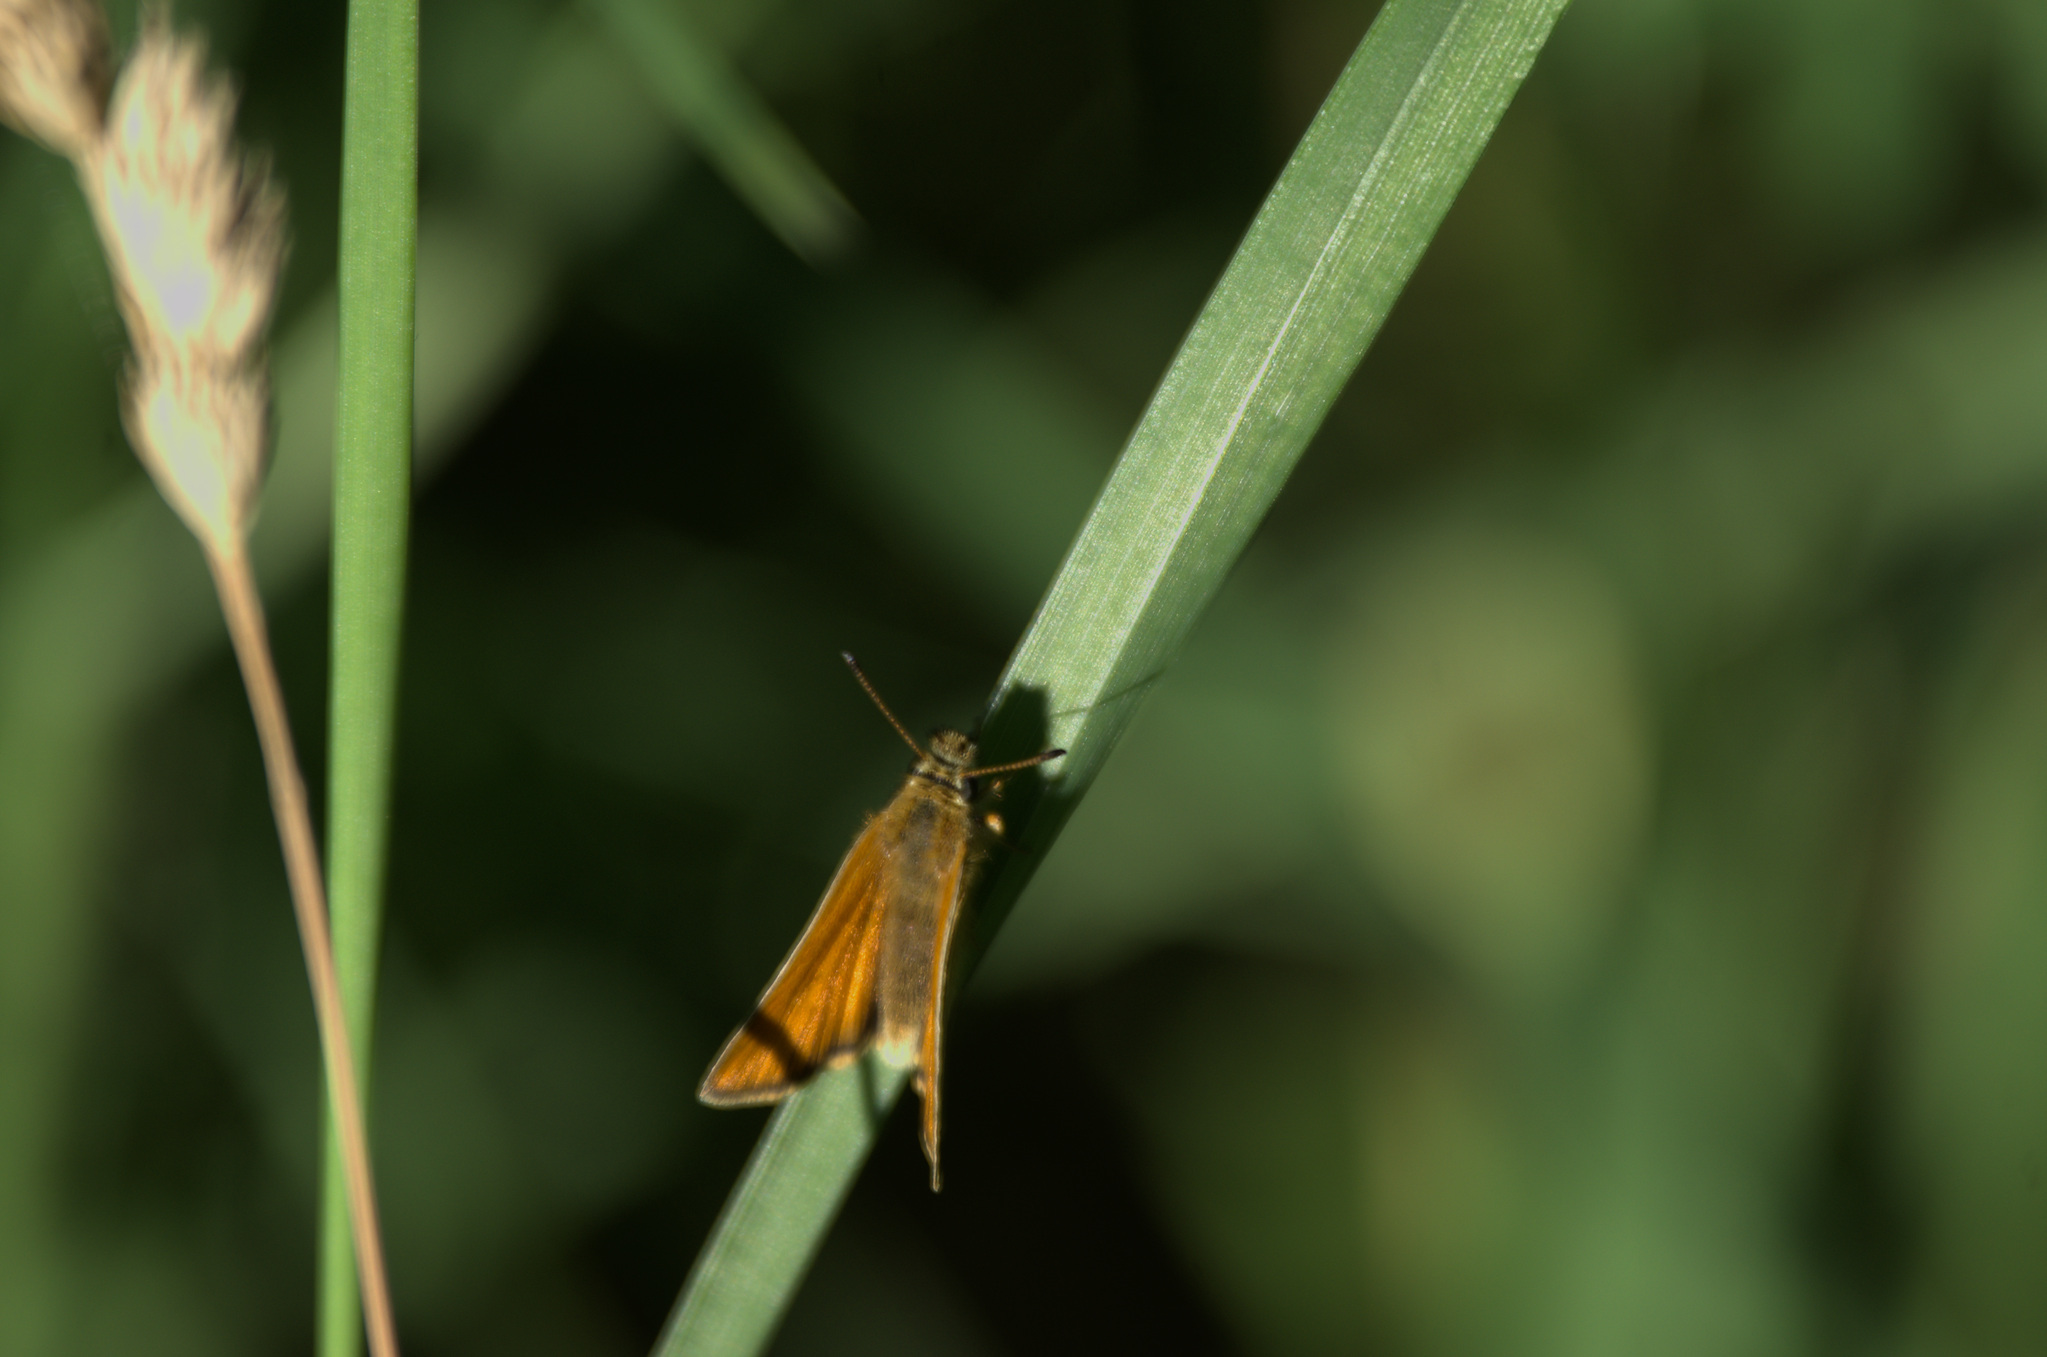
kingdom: Animalia
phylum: Arthropoda
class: Insecta
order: Lepidoptera
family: Hesperiidae
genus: Thymelicus
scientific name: Thymelicus lineola
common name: Essex skipper
